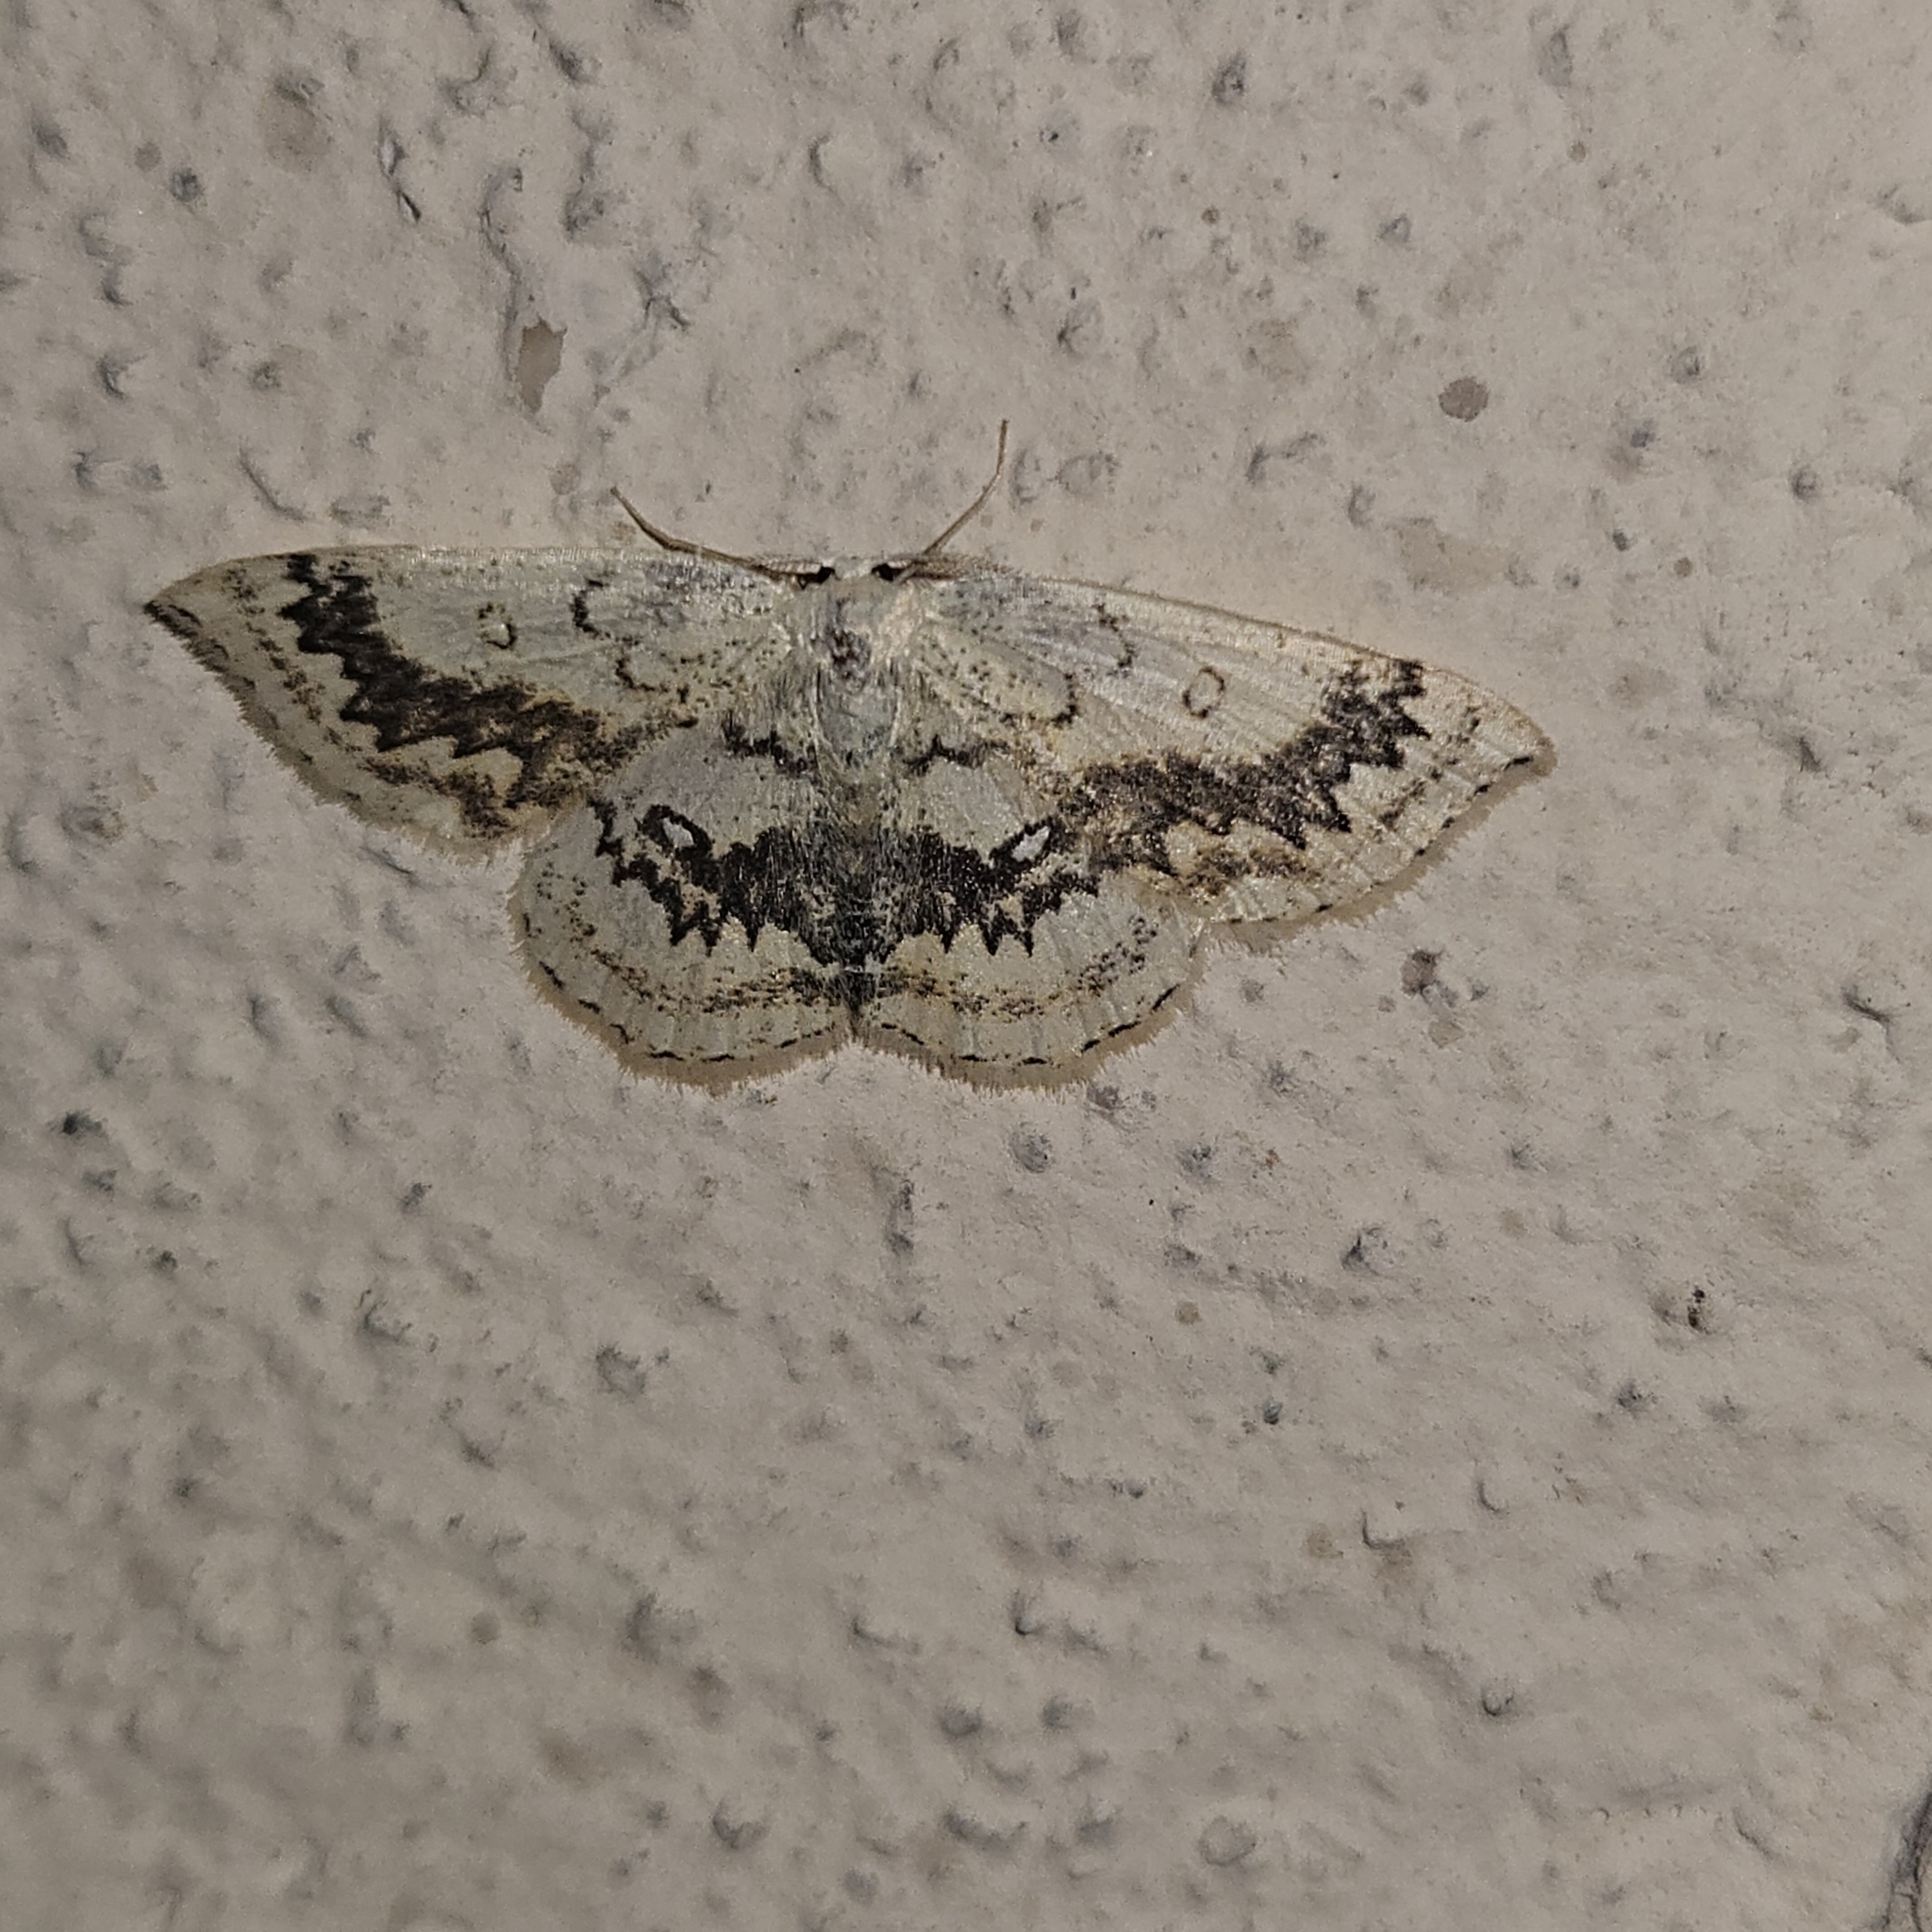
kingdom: Animalia
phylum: Arthropoda
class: Insecta
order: Lepidoptera
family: Geometridae
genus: Cyclophora
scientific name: Cyclophora annularia
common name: Mocha
